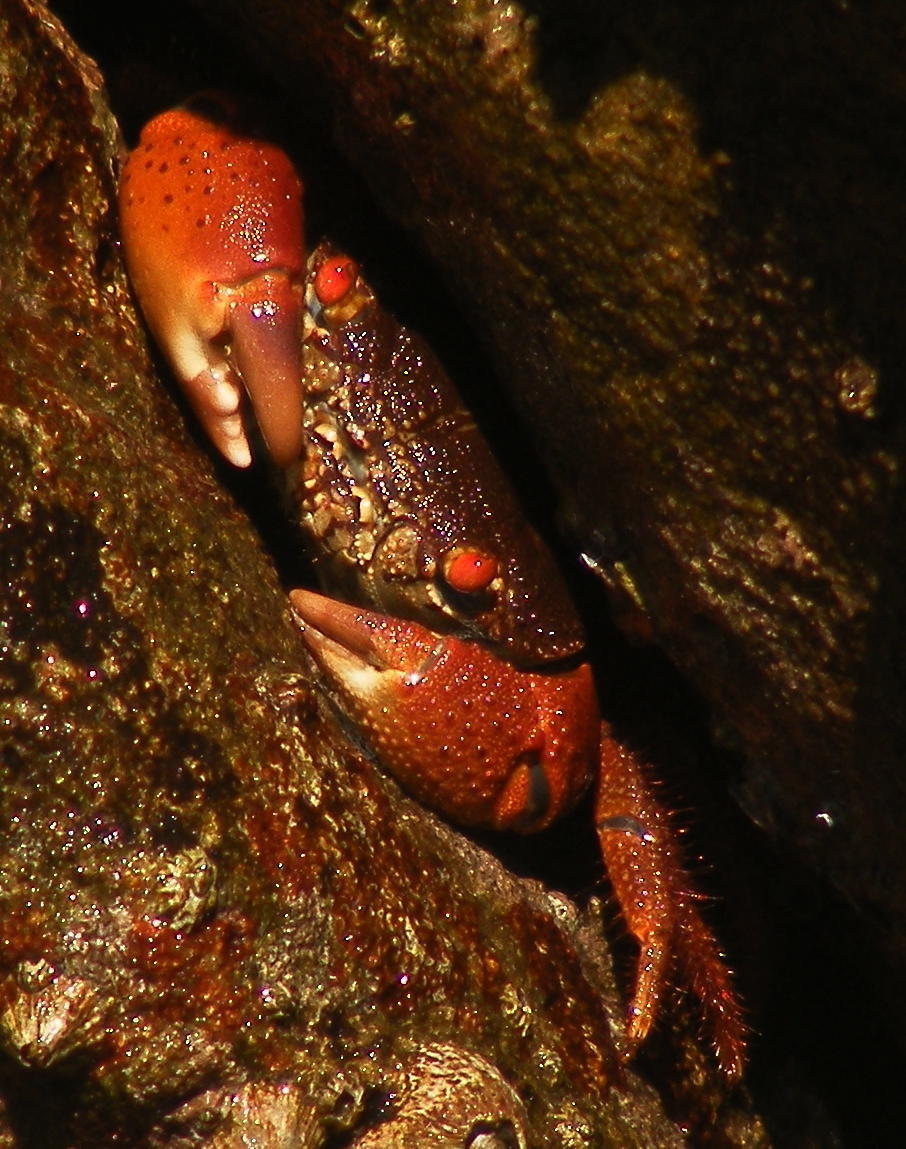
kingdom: Animalia
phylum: Arthropoda
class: Malacostraca
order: Decapoda
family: Eriphiidae
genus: Eriphia
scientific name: Eriphia smithii
